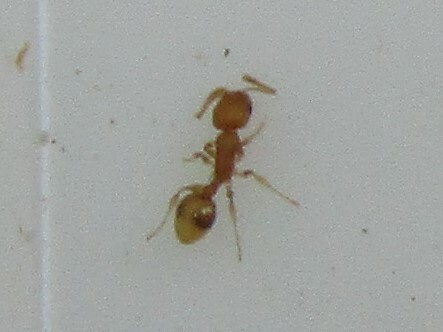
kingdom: Animalia
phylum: Arthropoda
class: Insecta
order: Hymenoptera
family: Formicidae
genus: Temnothorax
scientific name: Temnothorax curvispinosus
